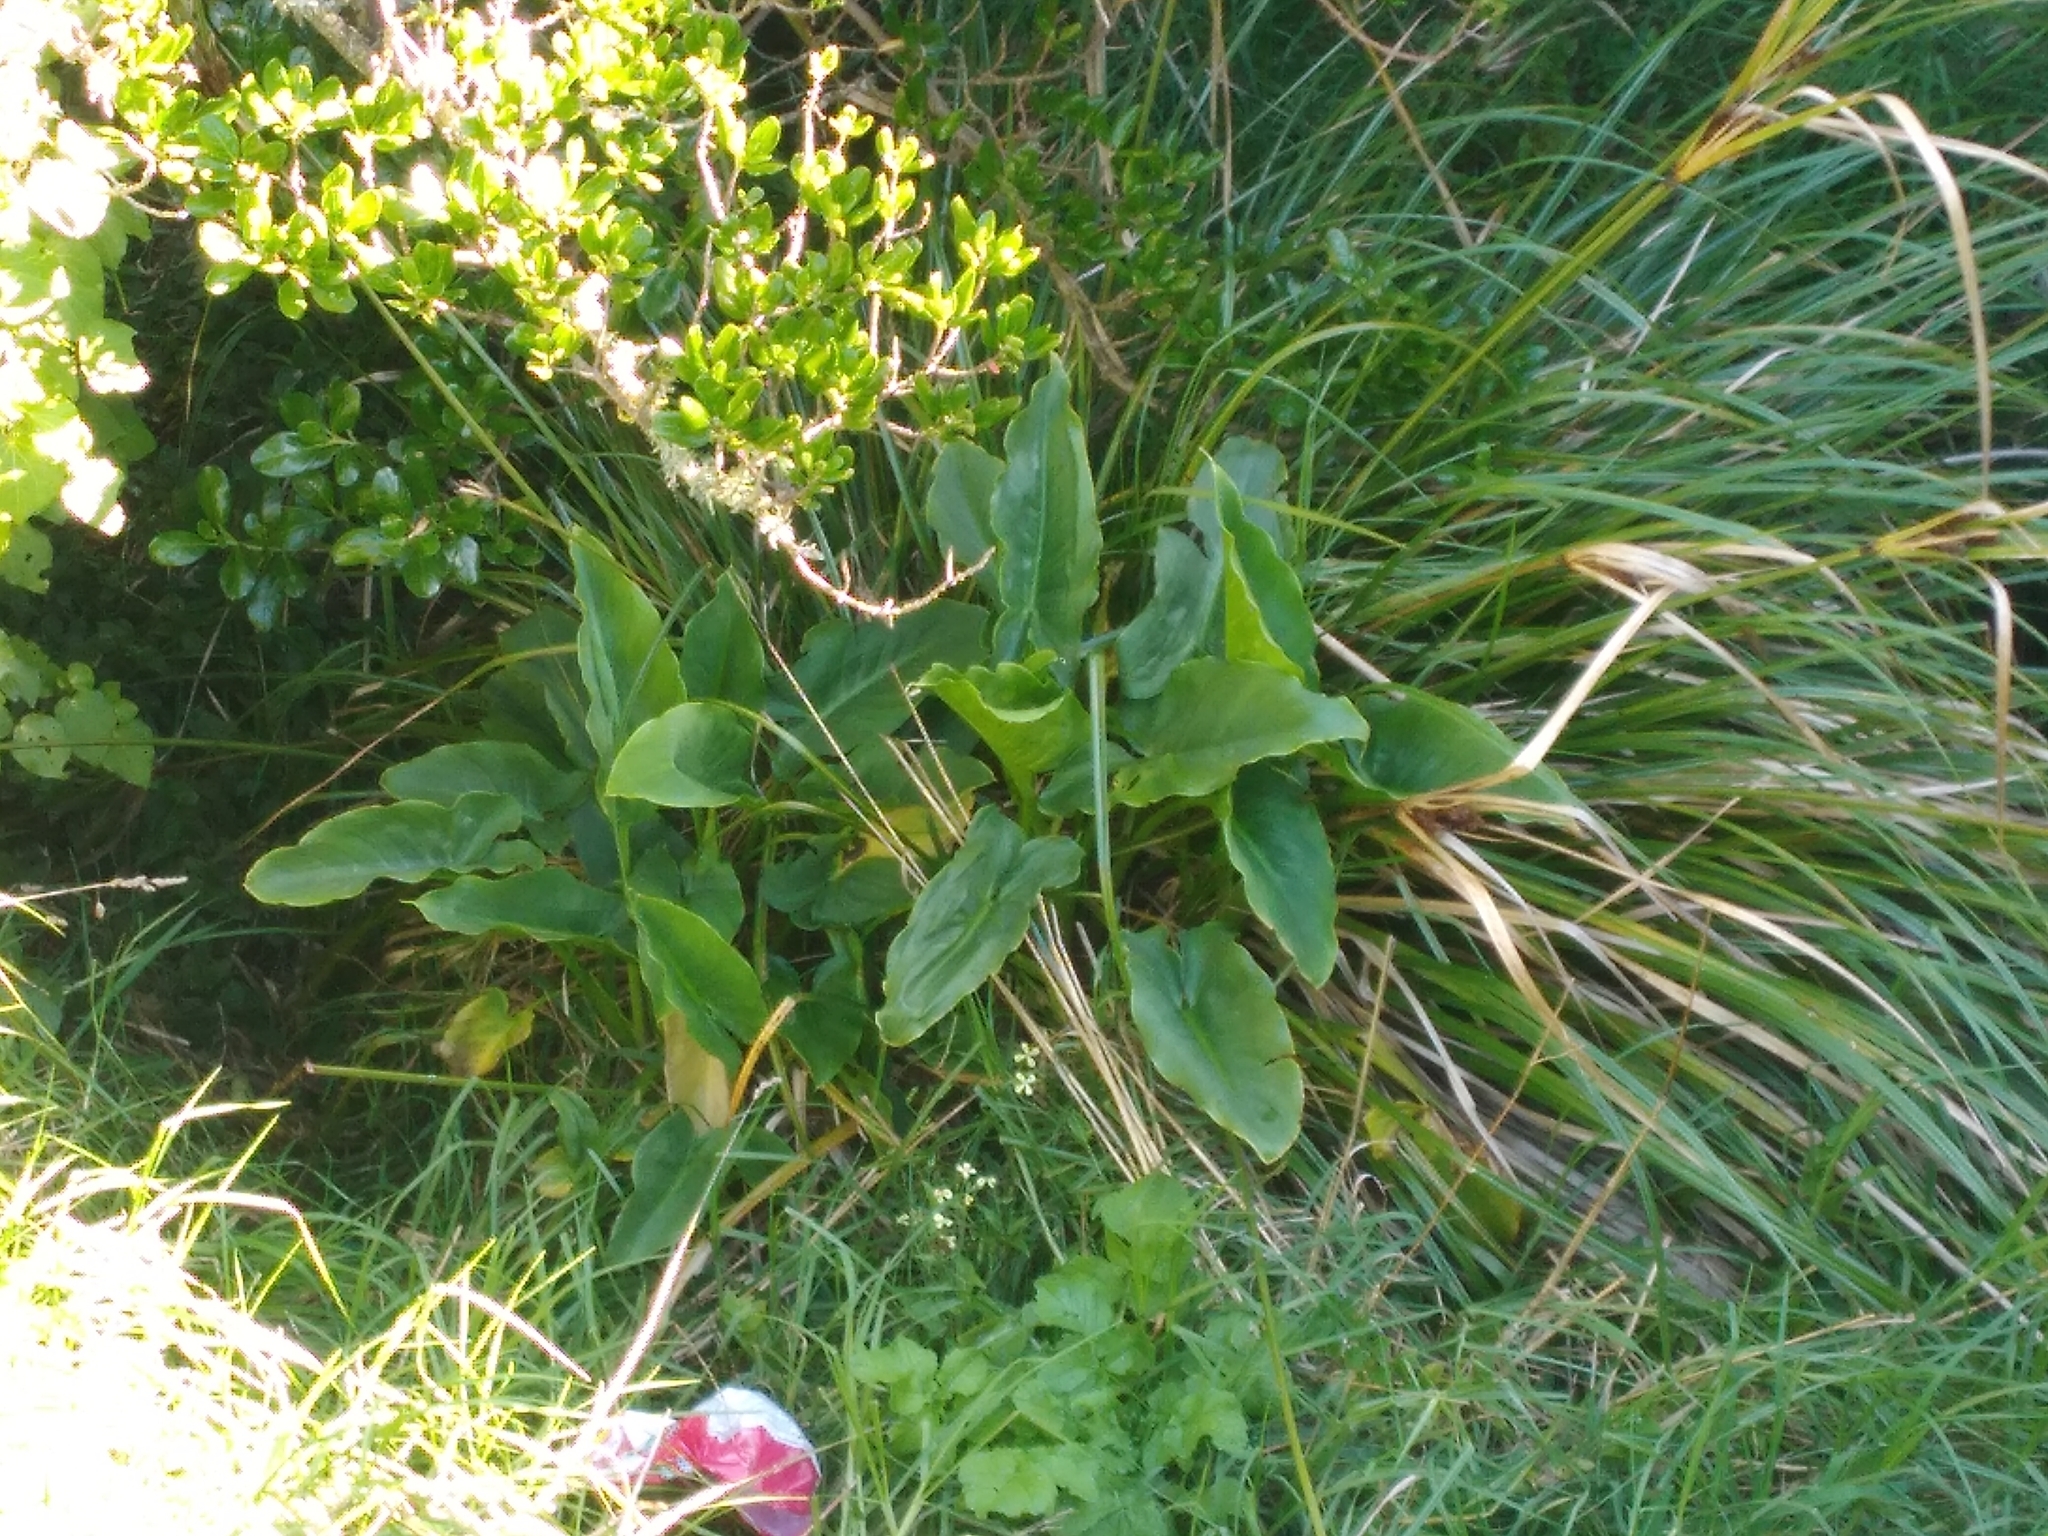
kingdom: Plantae
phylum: Tracheophyta
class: Liliopsida
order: Alismatales
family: Araceae
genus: Zantedeschia
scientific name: Zantedeschia aethiopica
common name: Altar-lily
